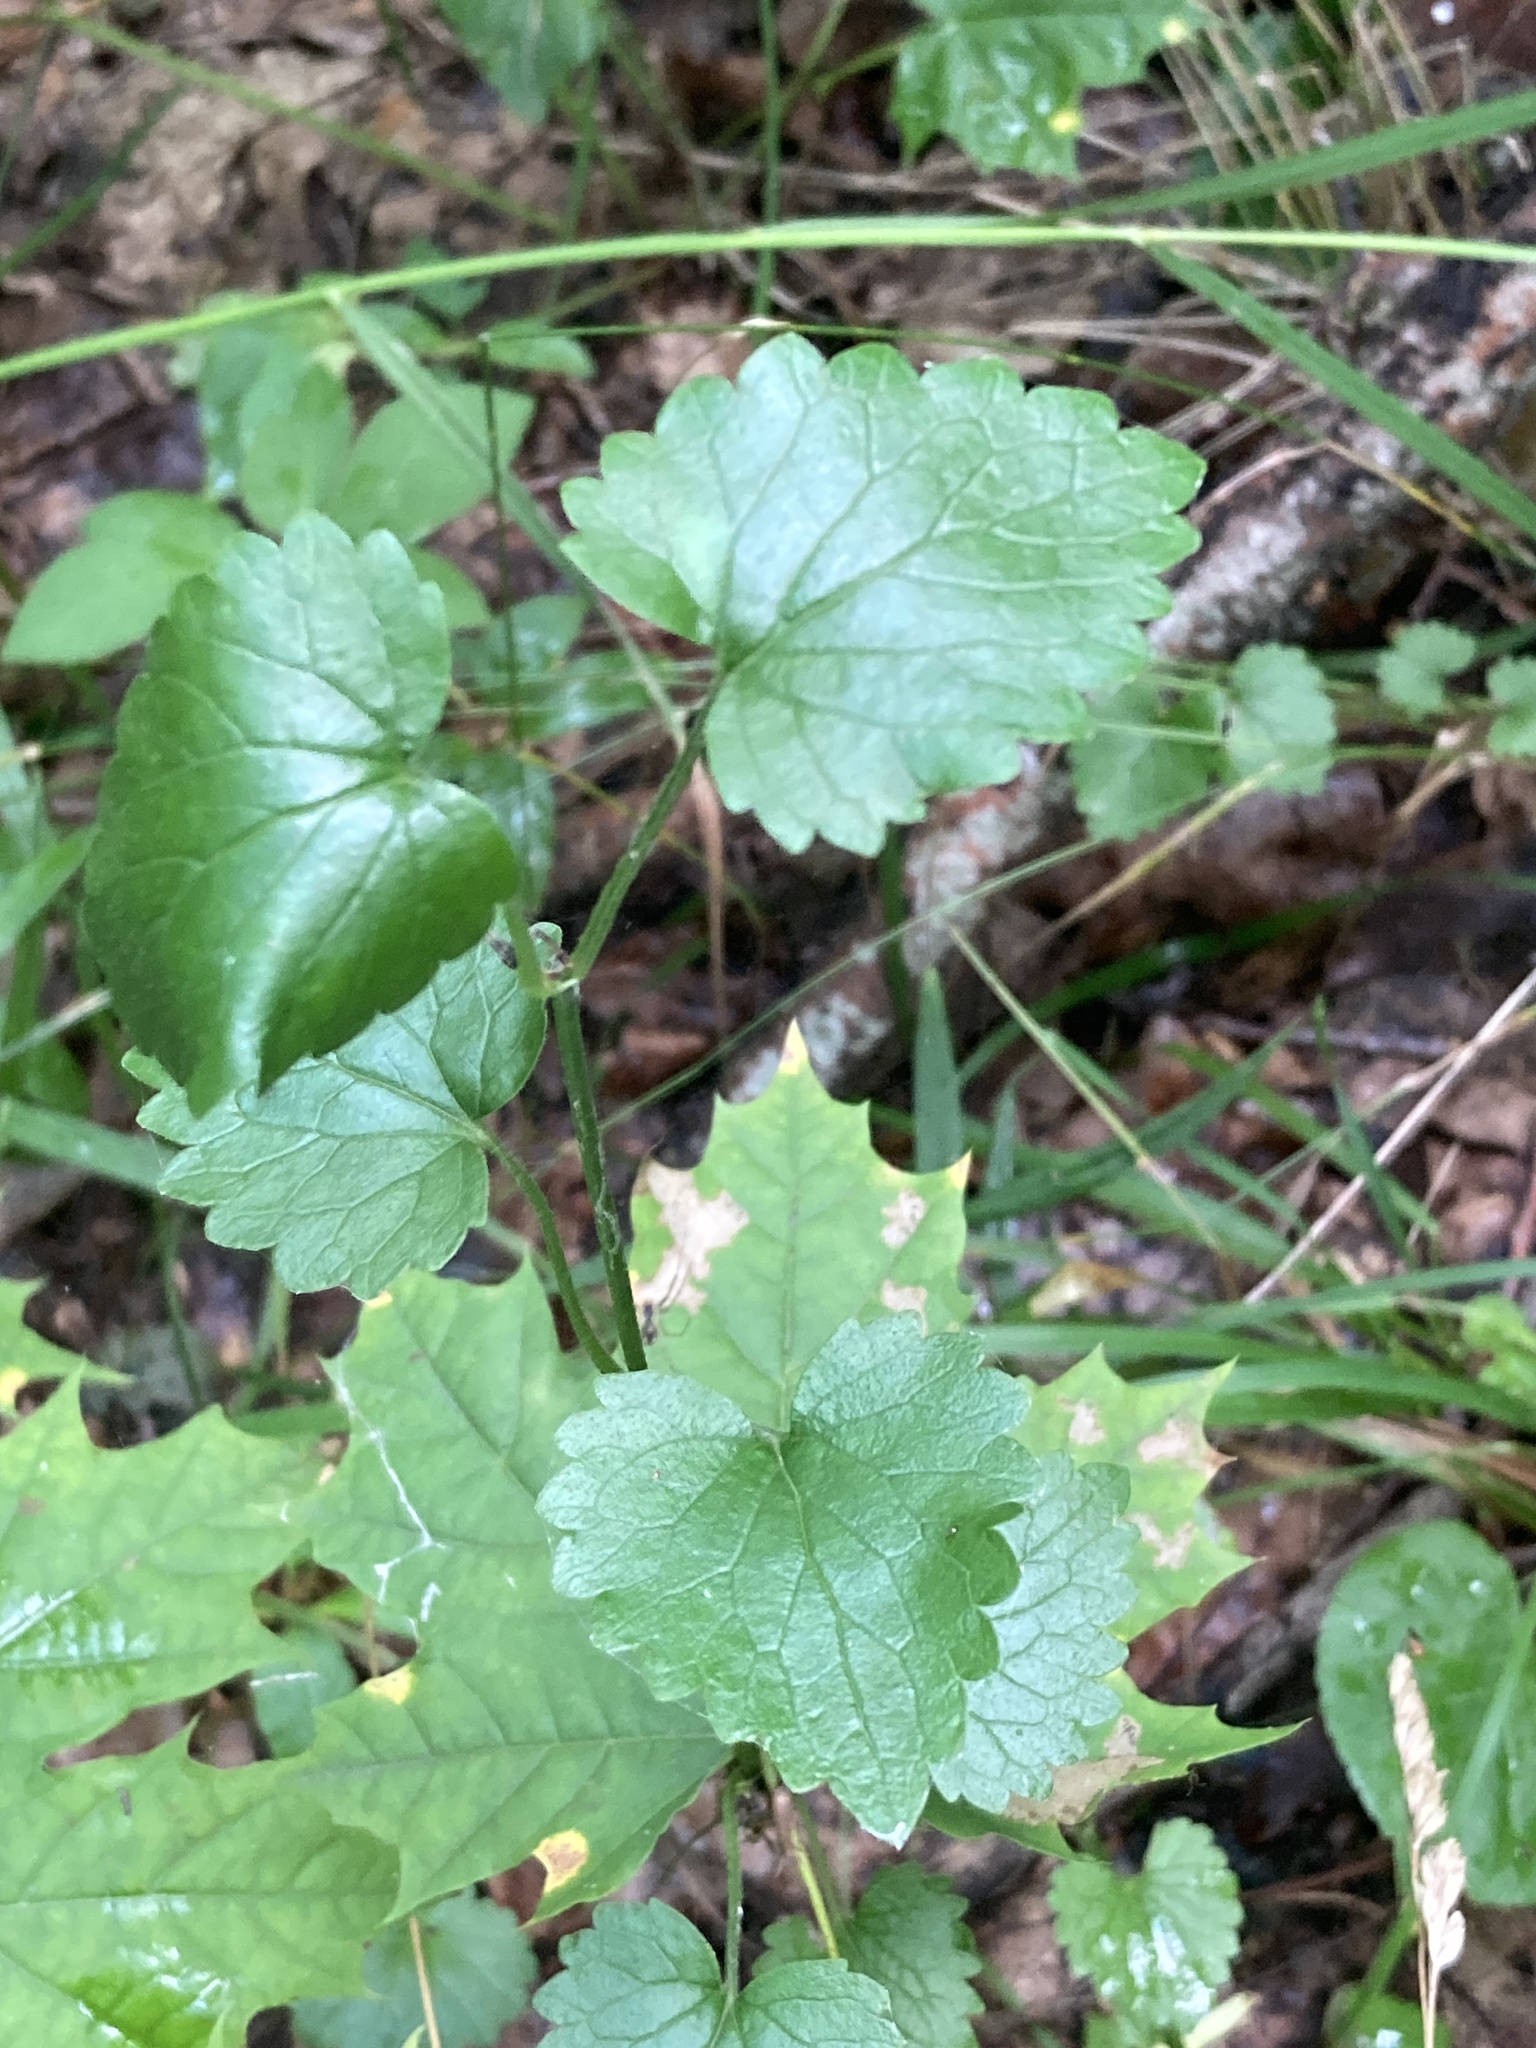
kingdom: Plantae
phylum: Tracheophyta
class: Magnoliopsida
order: Lamiales
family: Lamiaceae
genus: Glechoma
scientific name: Glechoma hederacea
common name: Ground ivy
